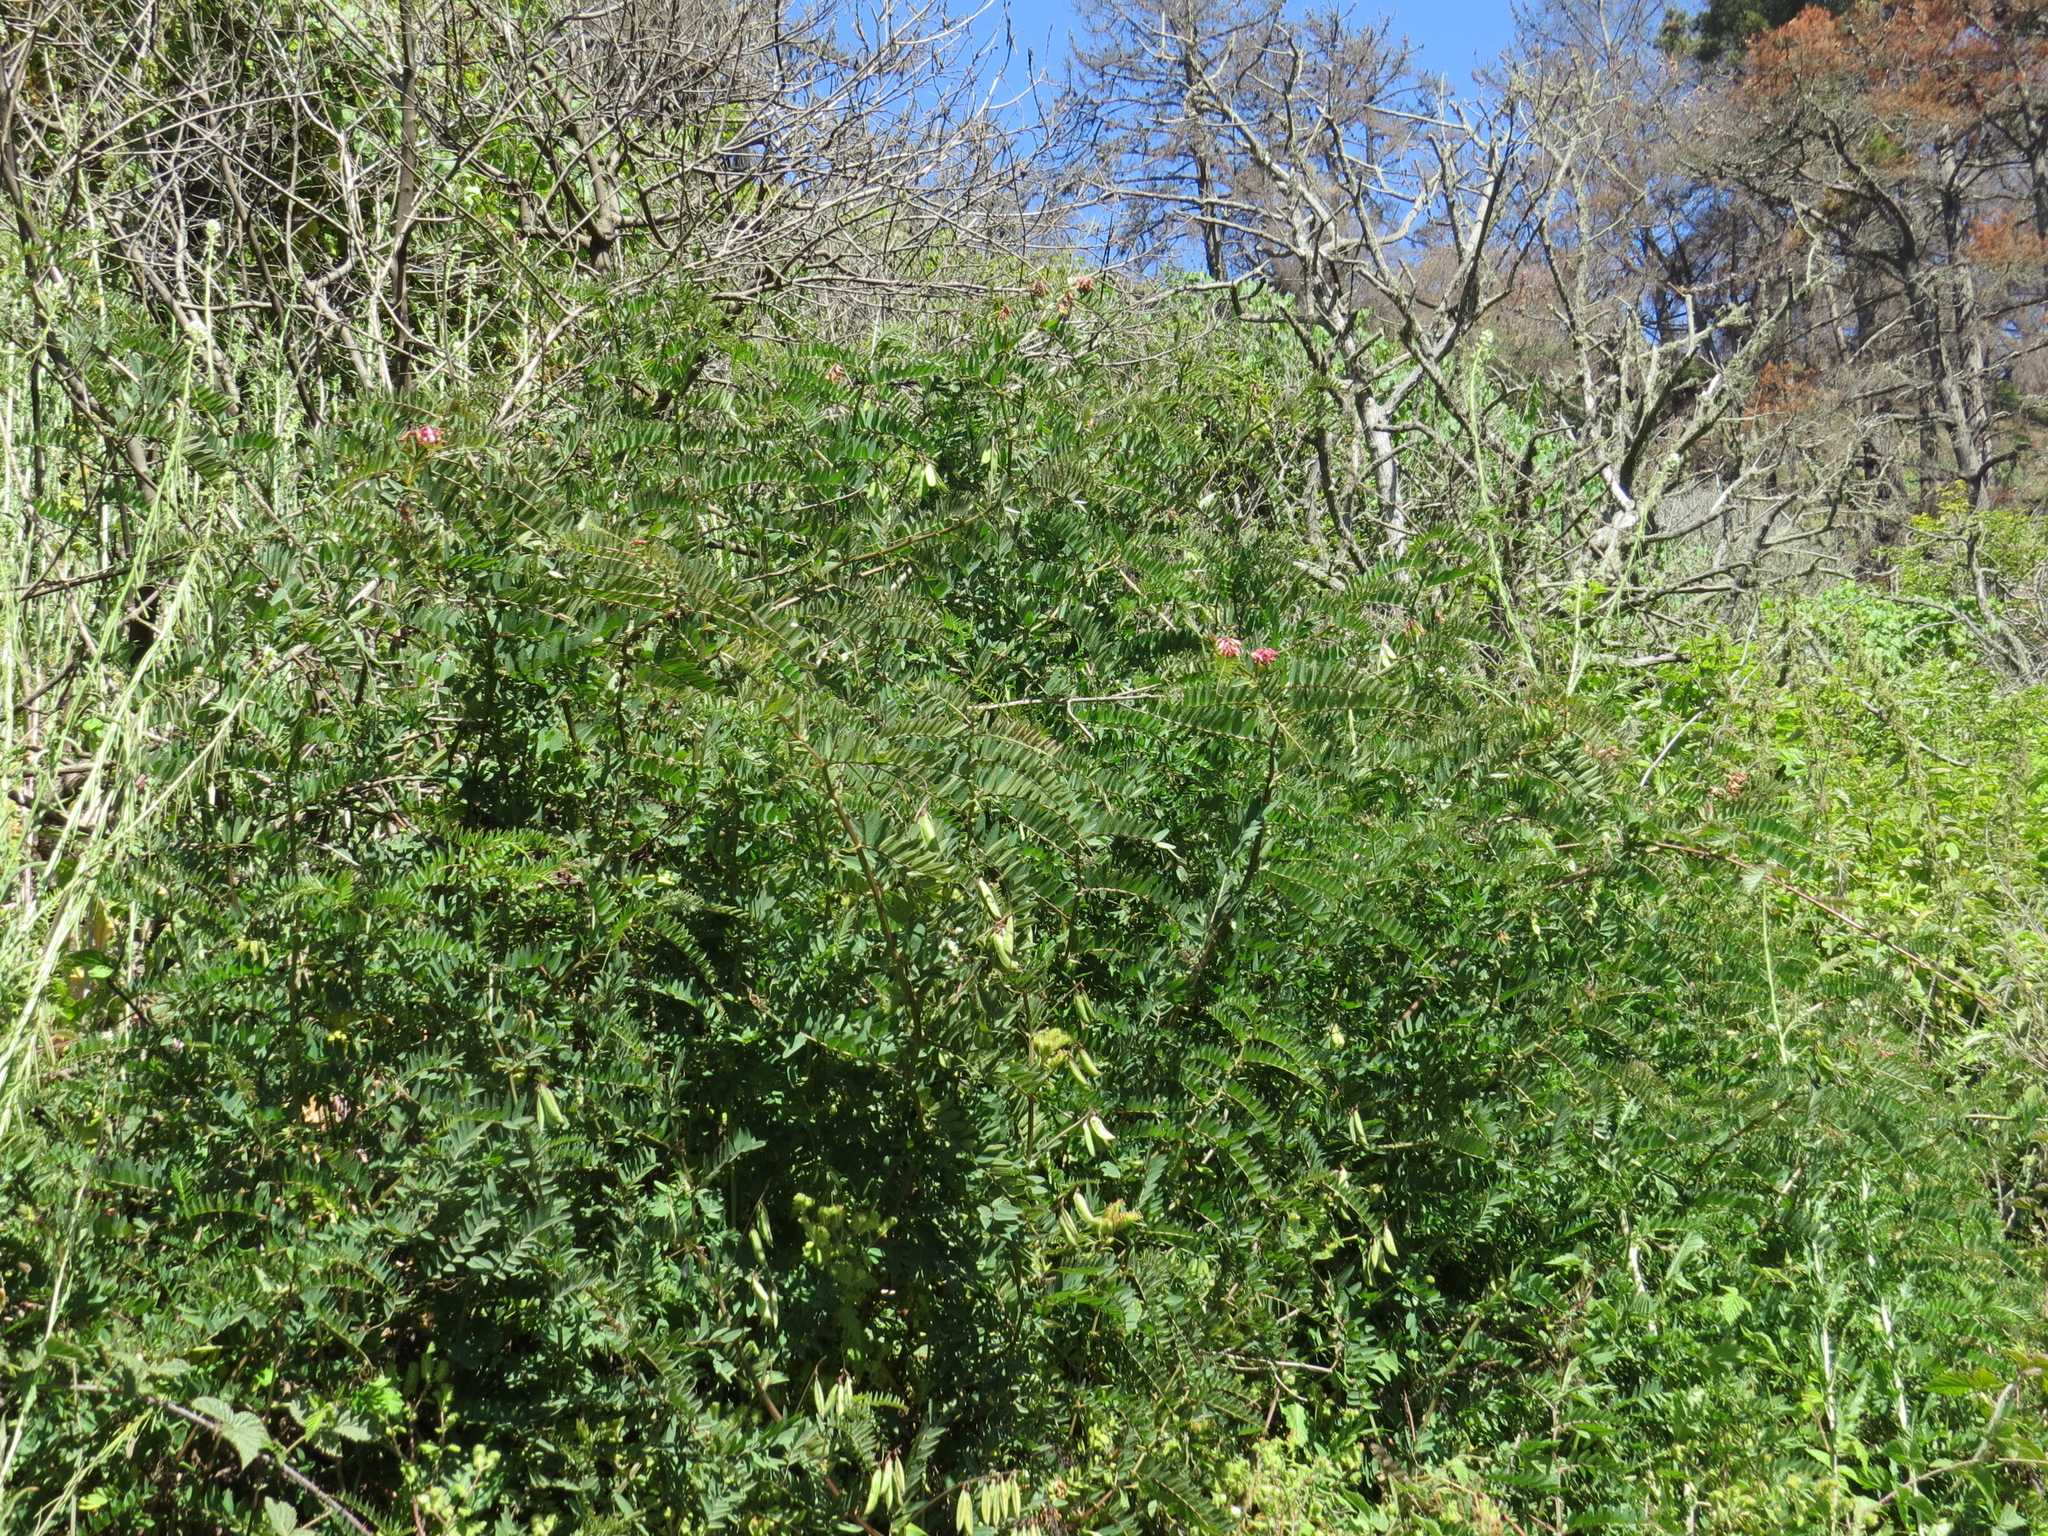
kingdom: Plantae
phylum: Tracheophyta
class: Magnoliopsida
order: Fabales
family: Fabaceae
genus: Vicia
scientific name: Vicia
